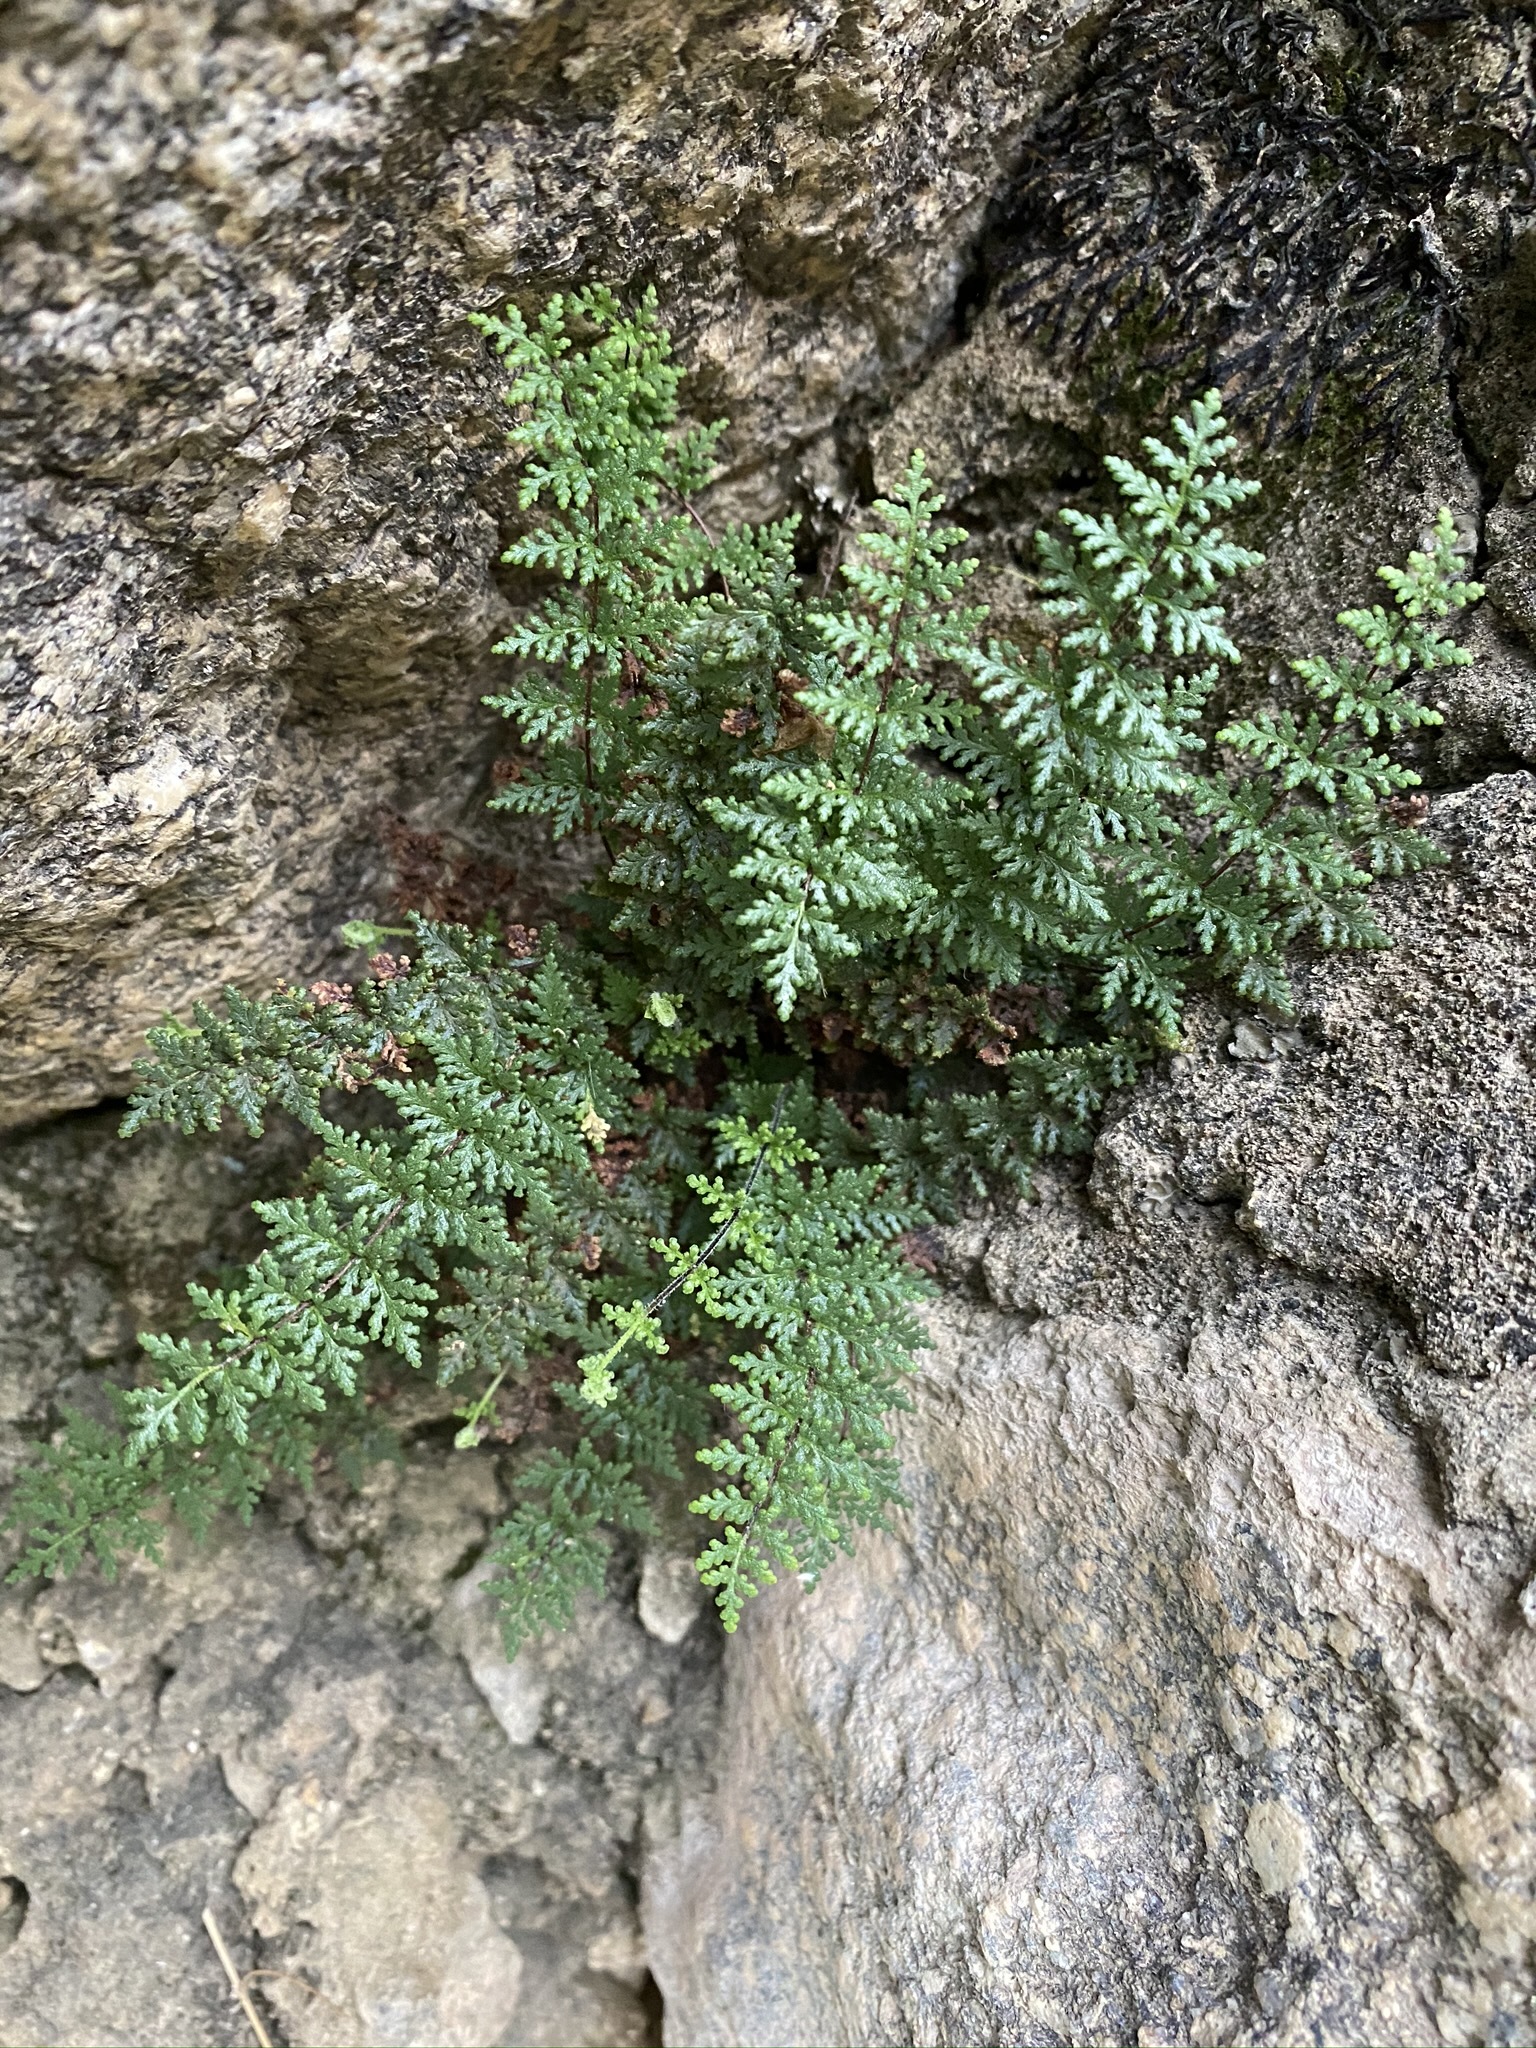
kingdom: Plantae
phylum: Tracheophyta
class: Polypodiopsida
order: Polypodiales
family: Pteridaceae
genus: Myriopteris
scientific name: Myriopteris viscida
